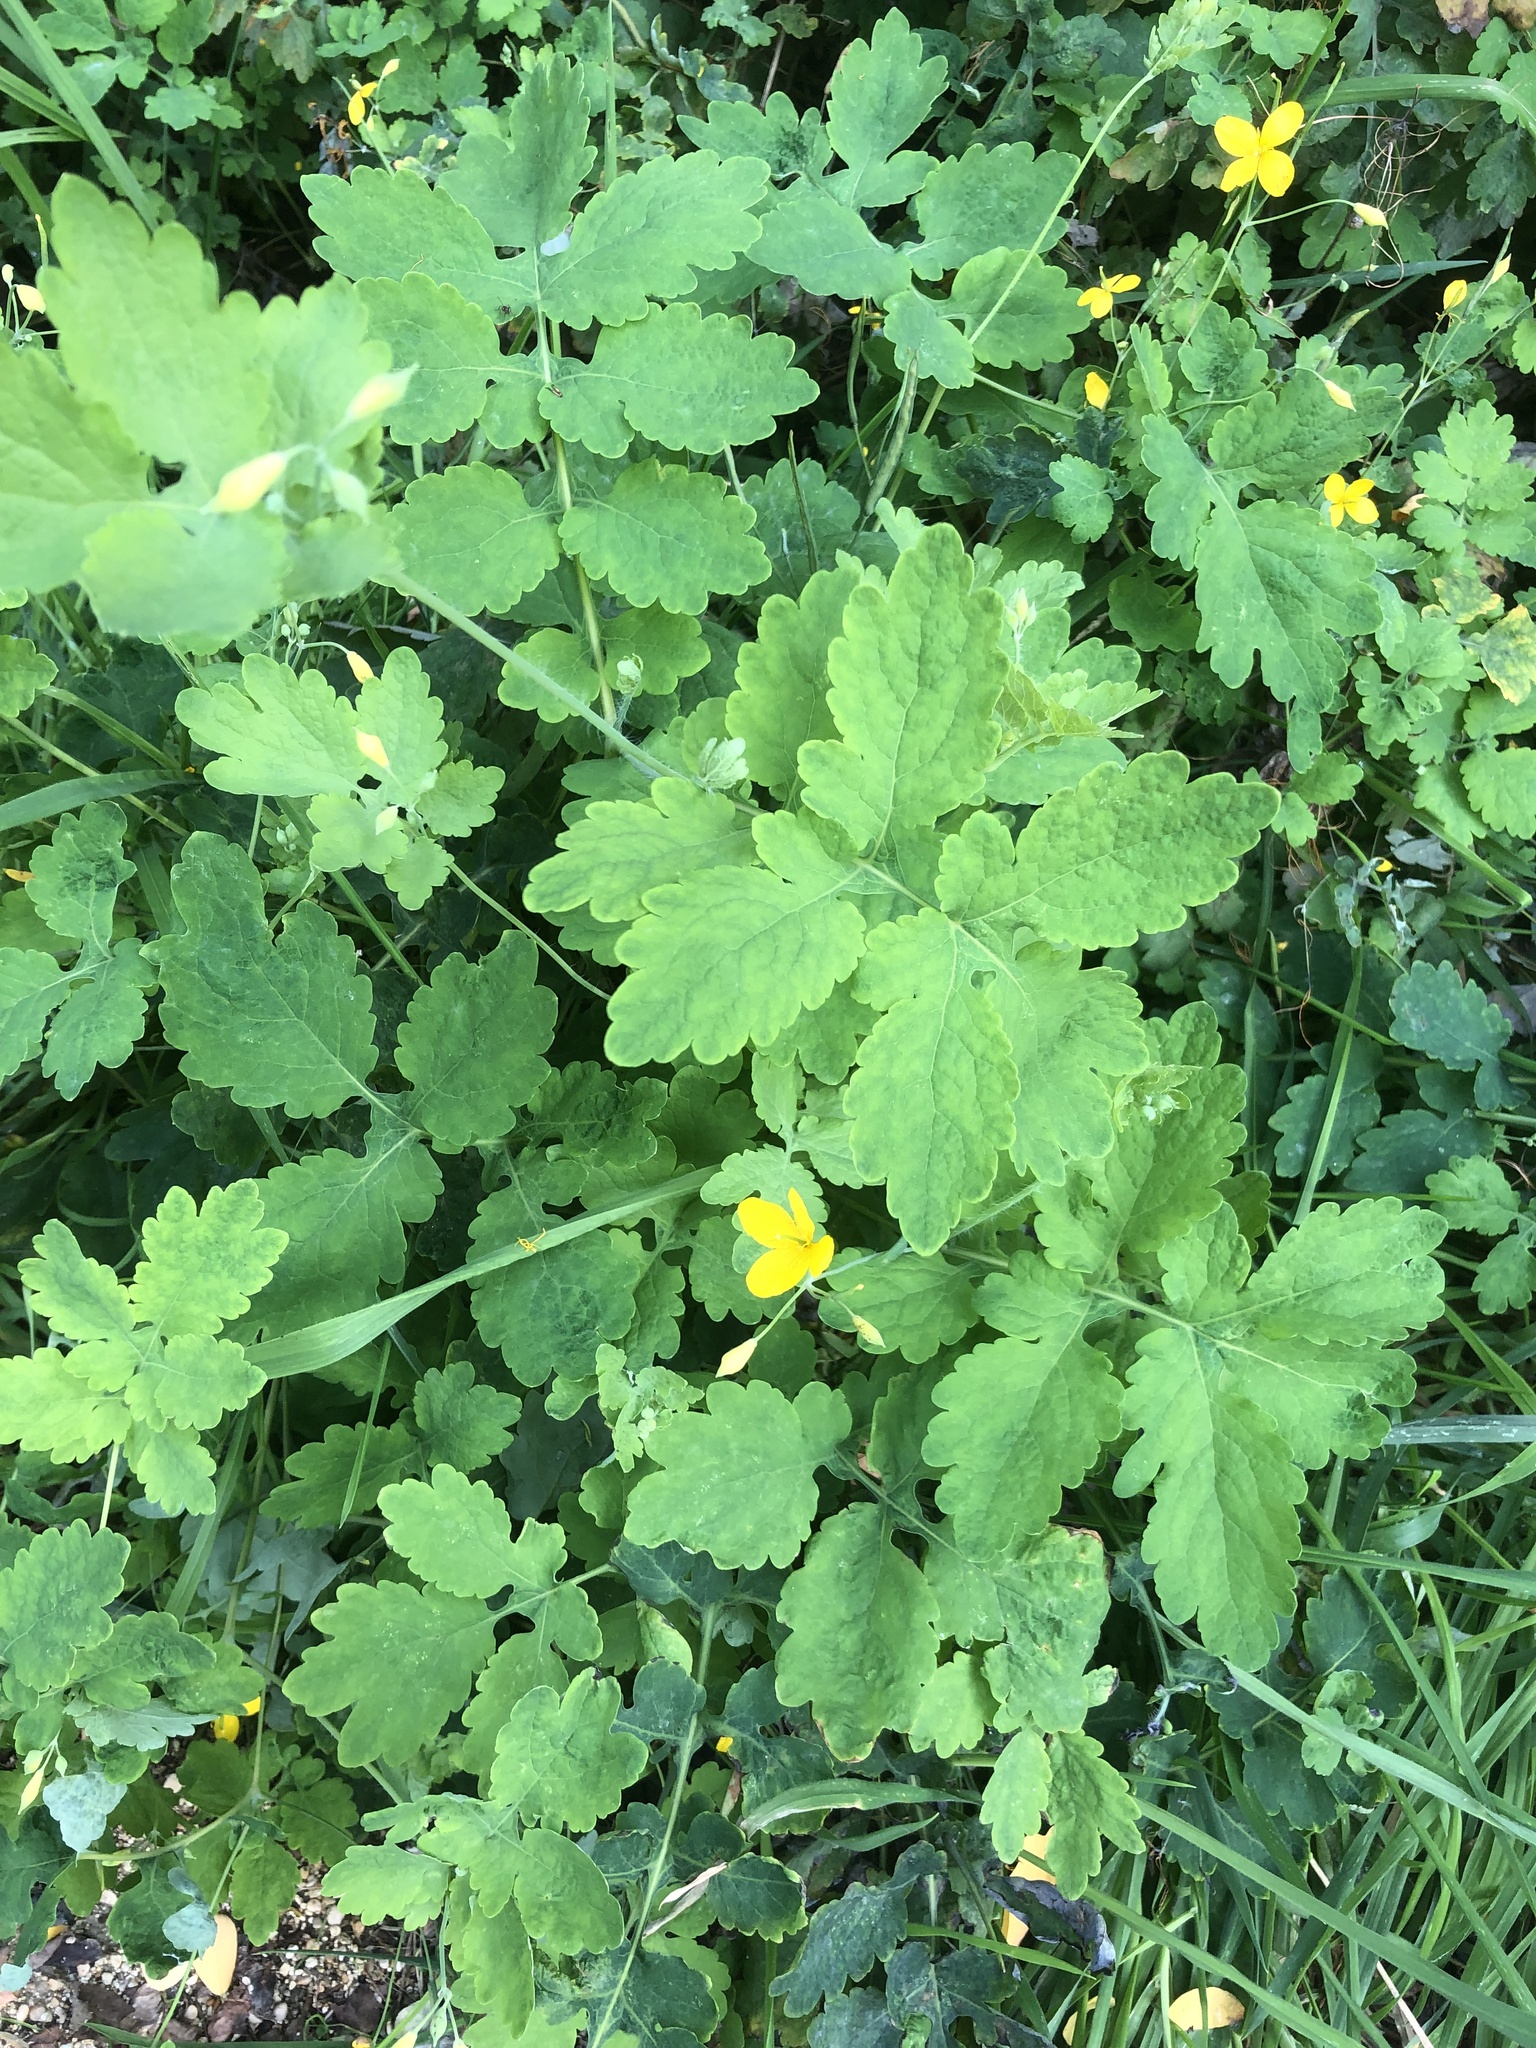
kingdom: Plantae
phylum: Tracheophyta
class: Magnoliopsida
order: Ranunculales
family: Papaveraceae
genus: Chelidonium
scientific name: Chelidonium majus
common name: Greater celandine
